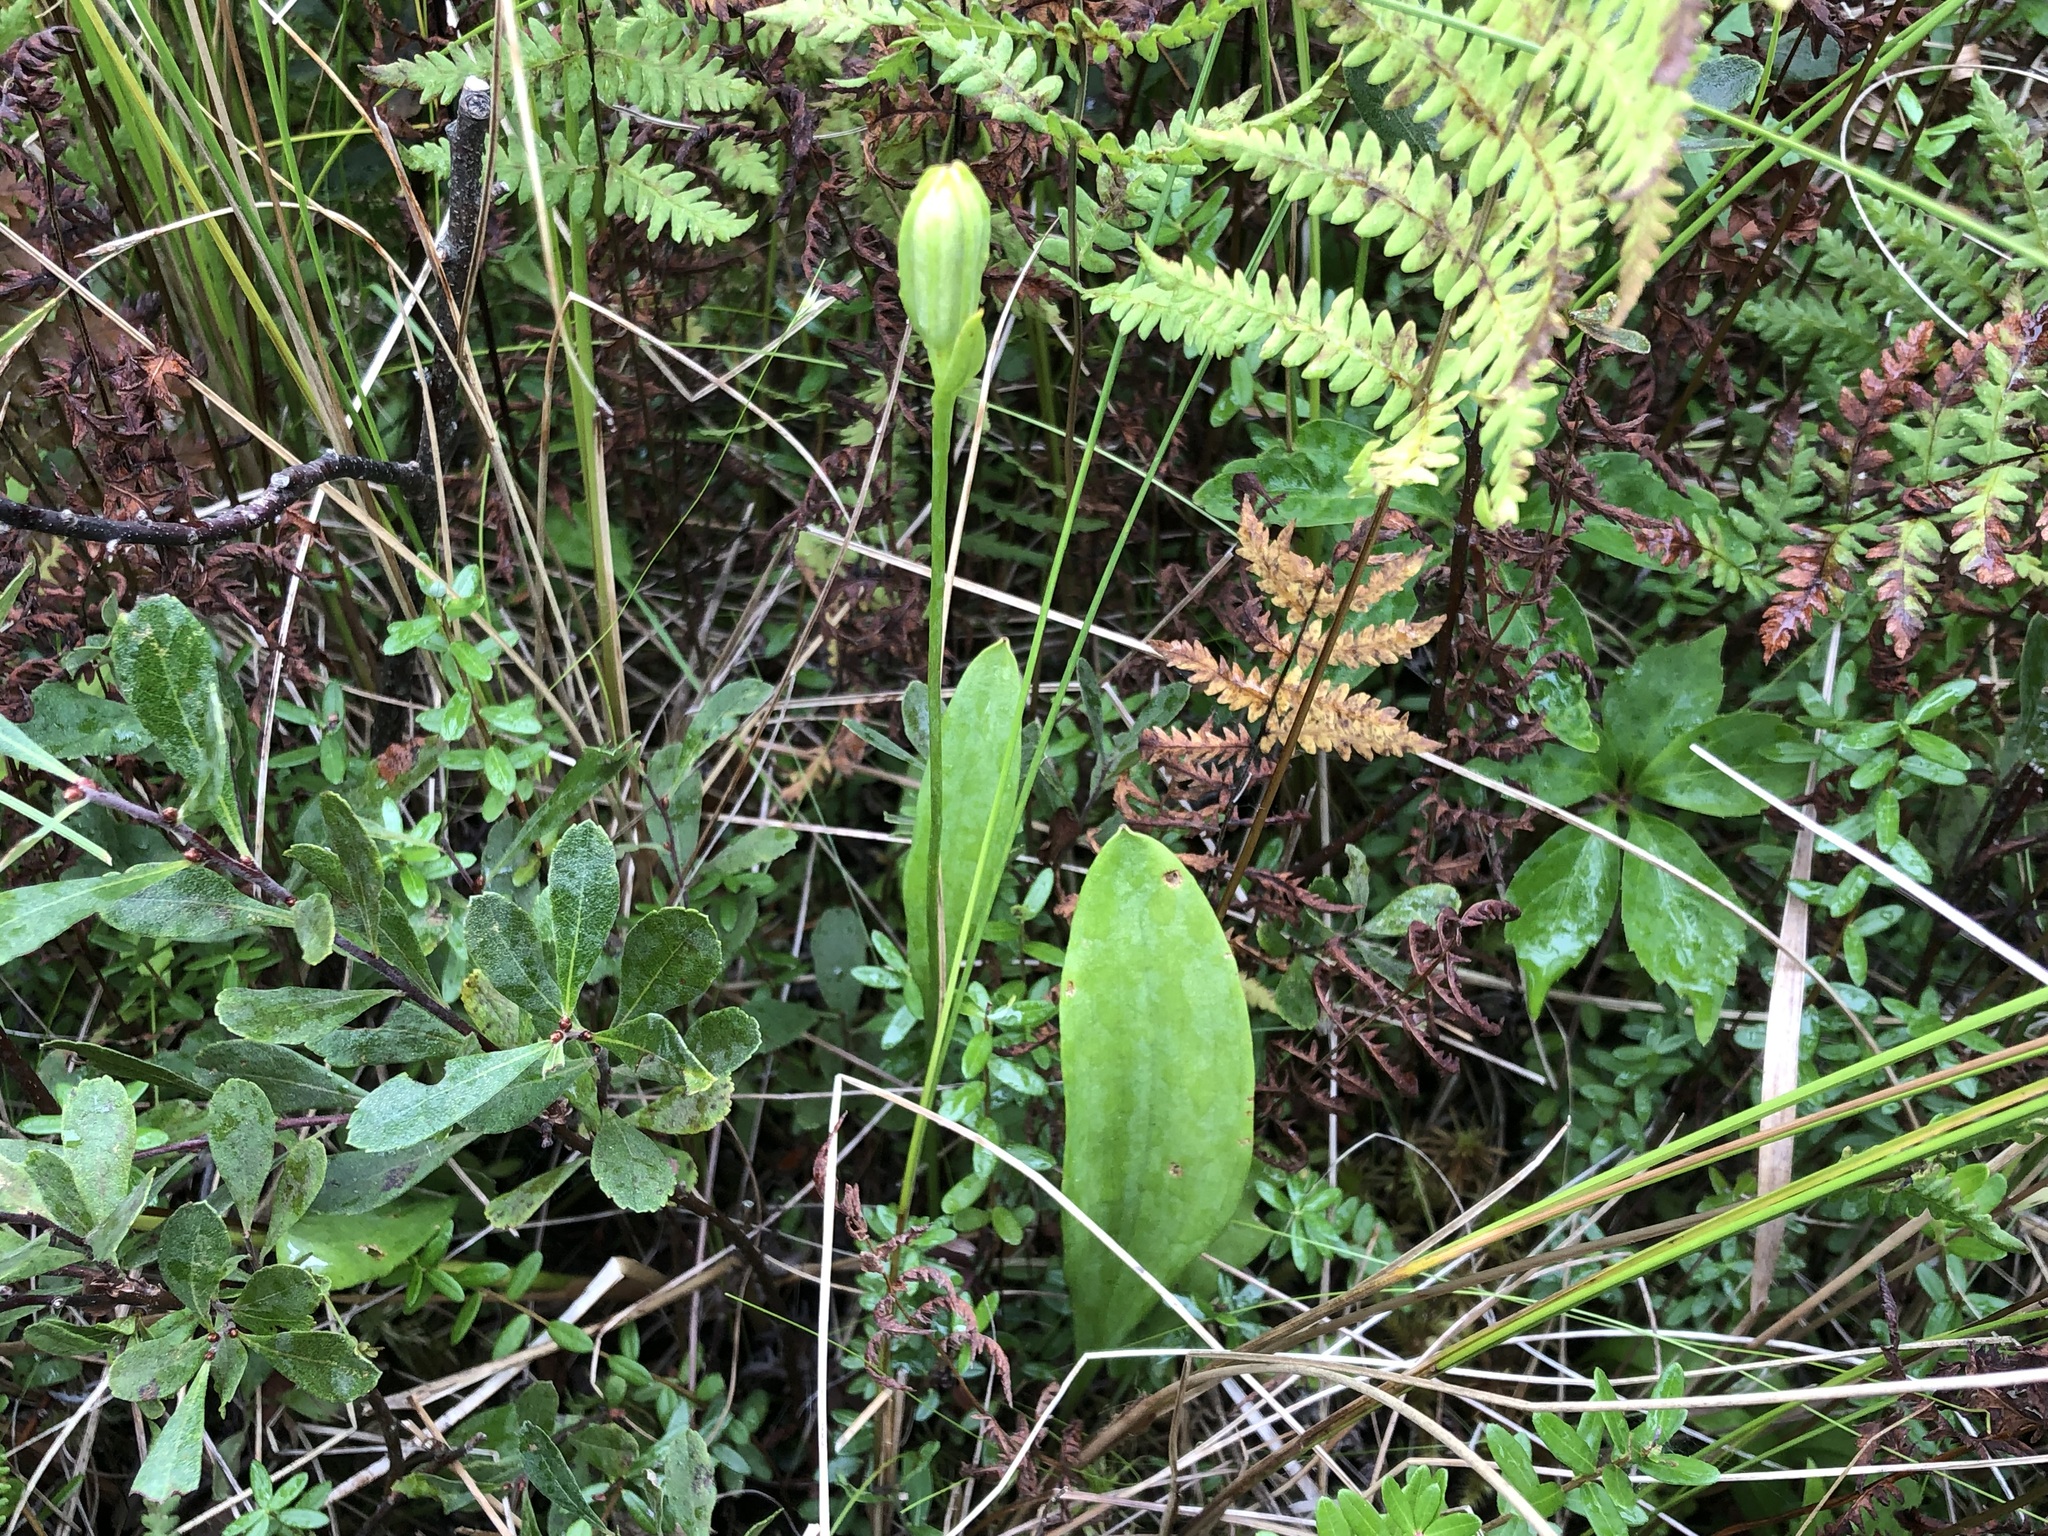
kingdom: Plantae
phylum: Tracheophyta
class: Liliopsida
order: Asparagales
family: Orchidaceae
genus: Pogonia
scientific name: Pogonia ophioglossoides
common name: Rose pogonia
